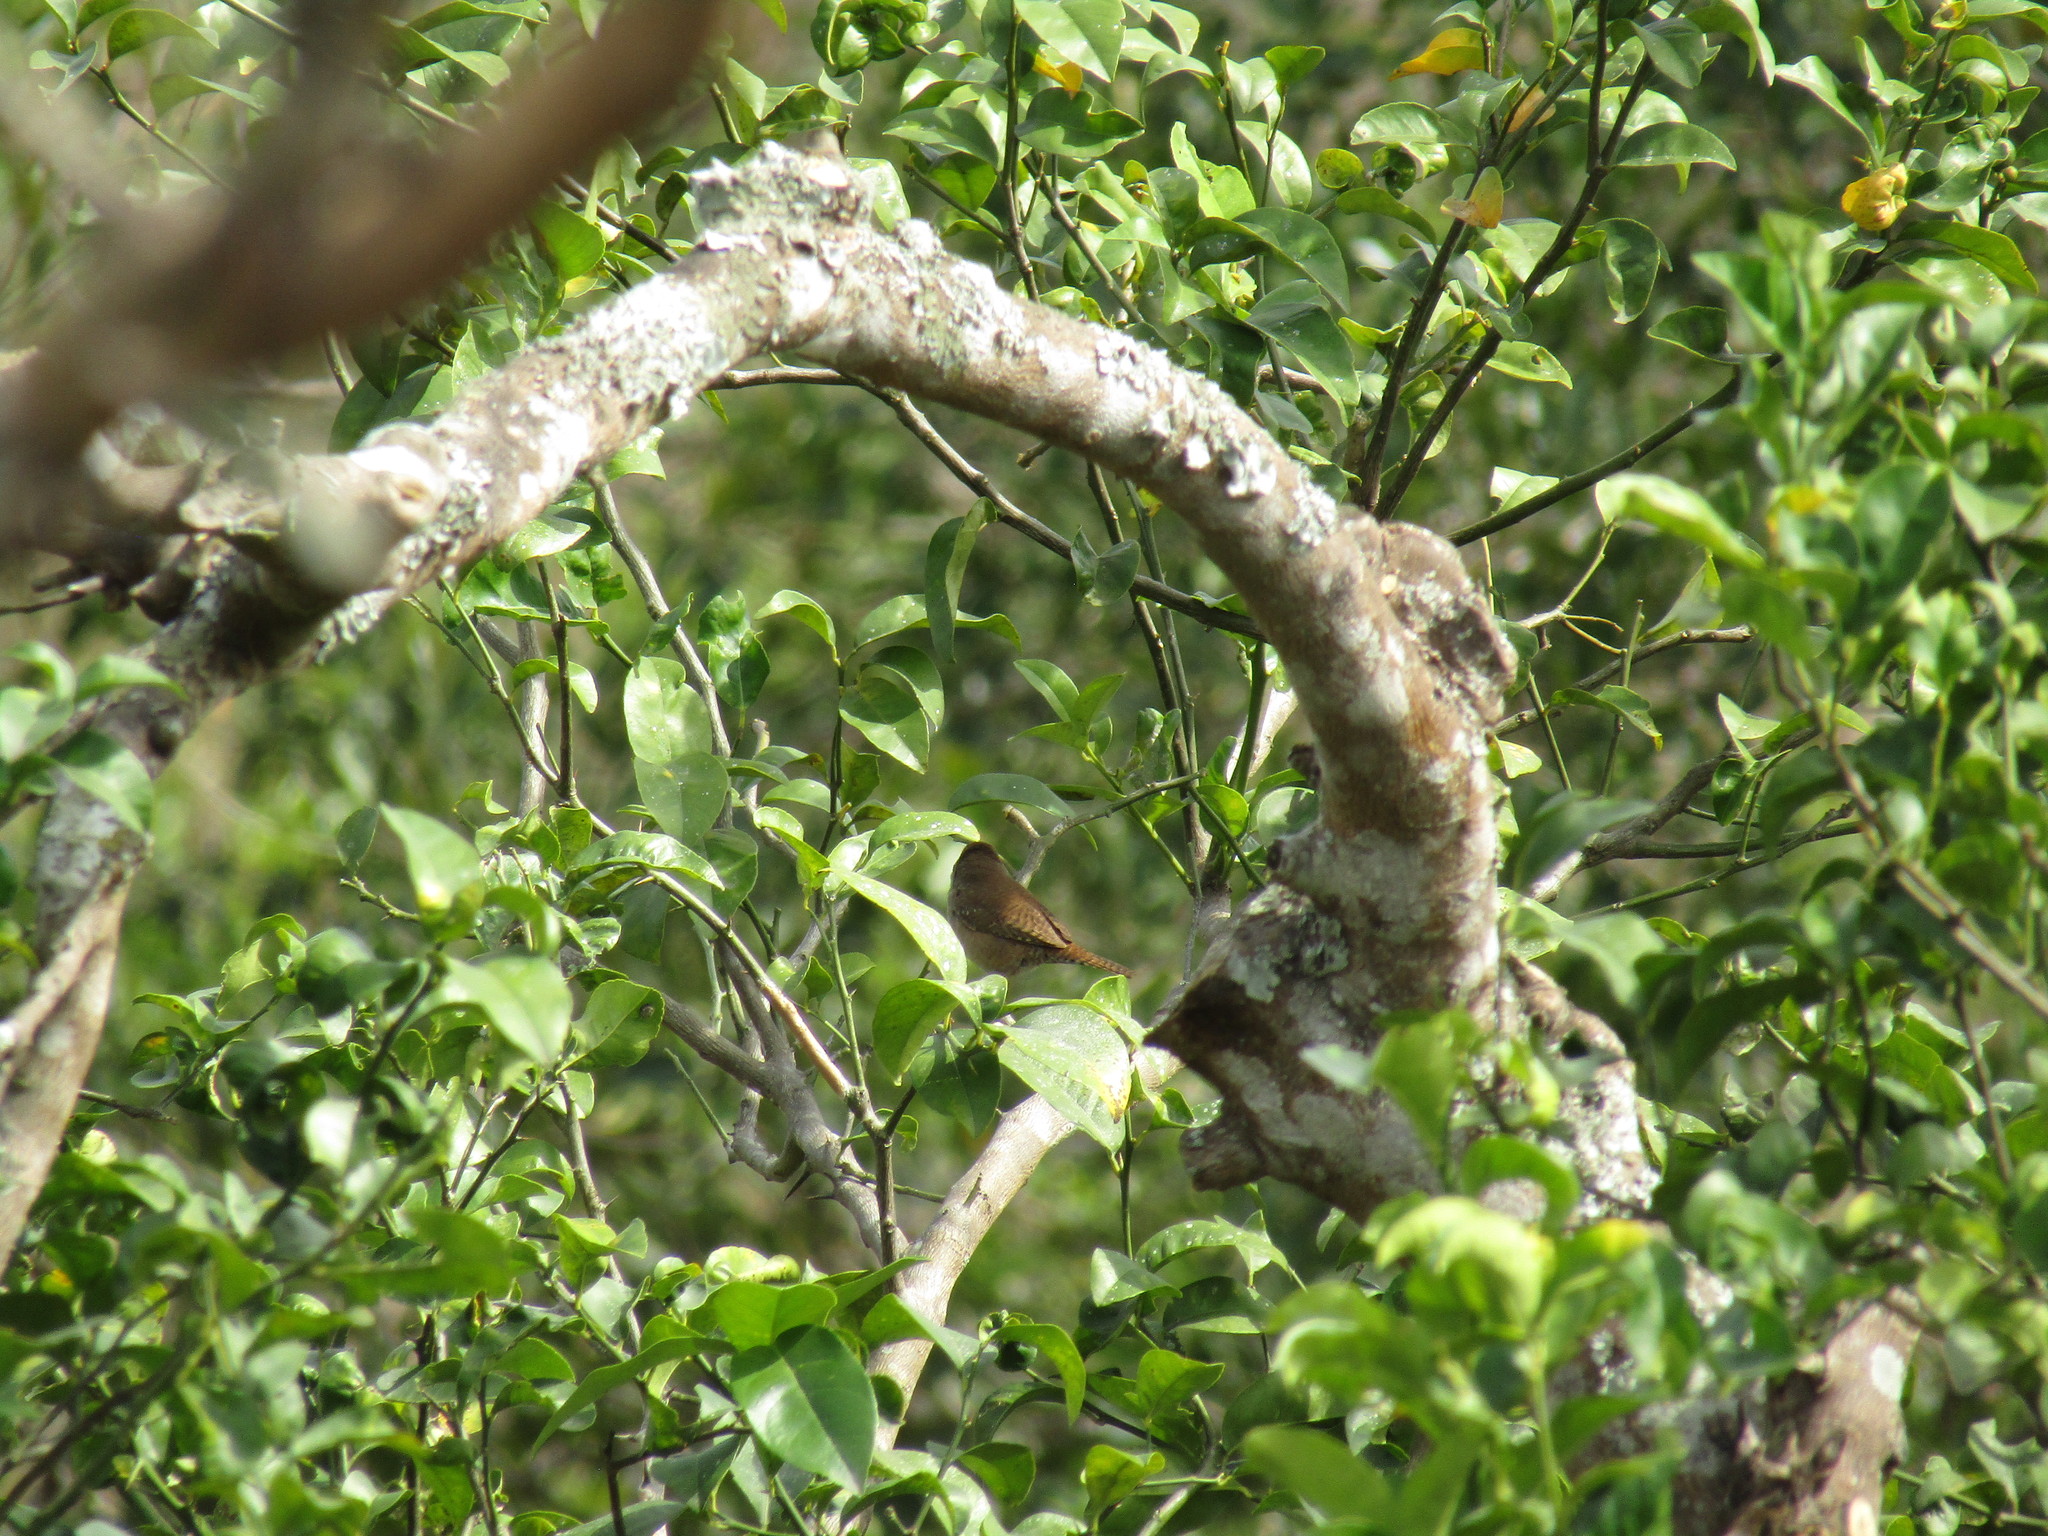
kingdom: Animalia
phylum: Chordata
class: Aves
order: Passeriformes
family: Troglodytidae
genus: Troglodytes
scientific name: Troglodytes aedon
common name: House wren
